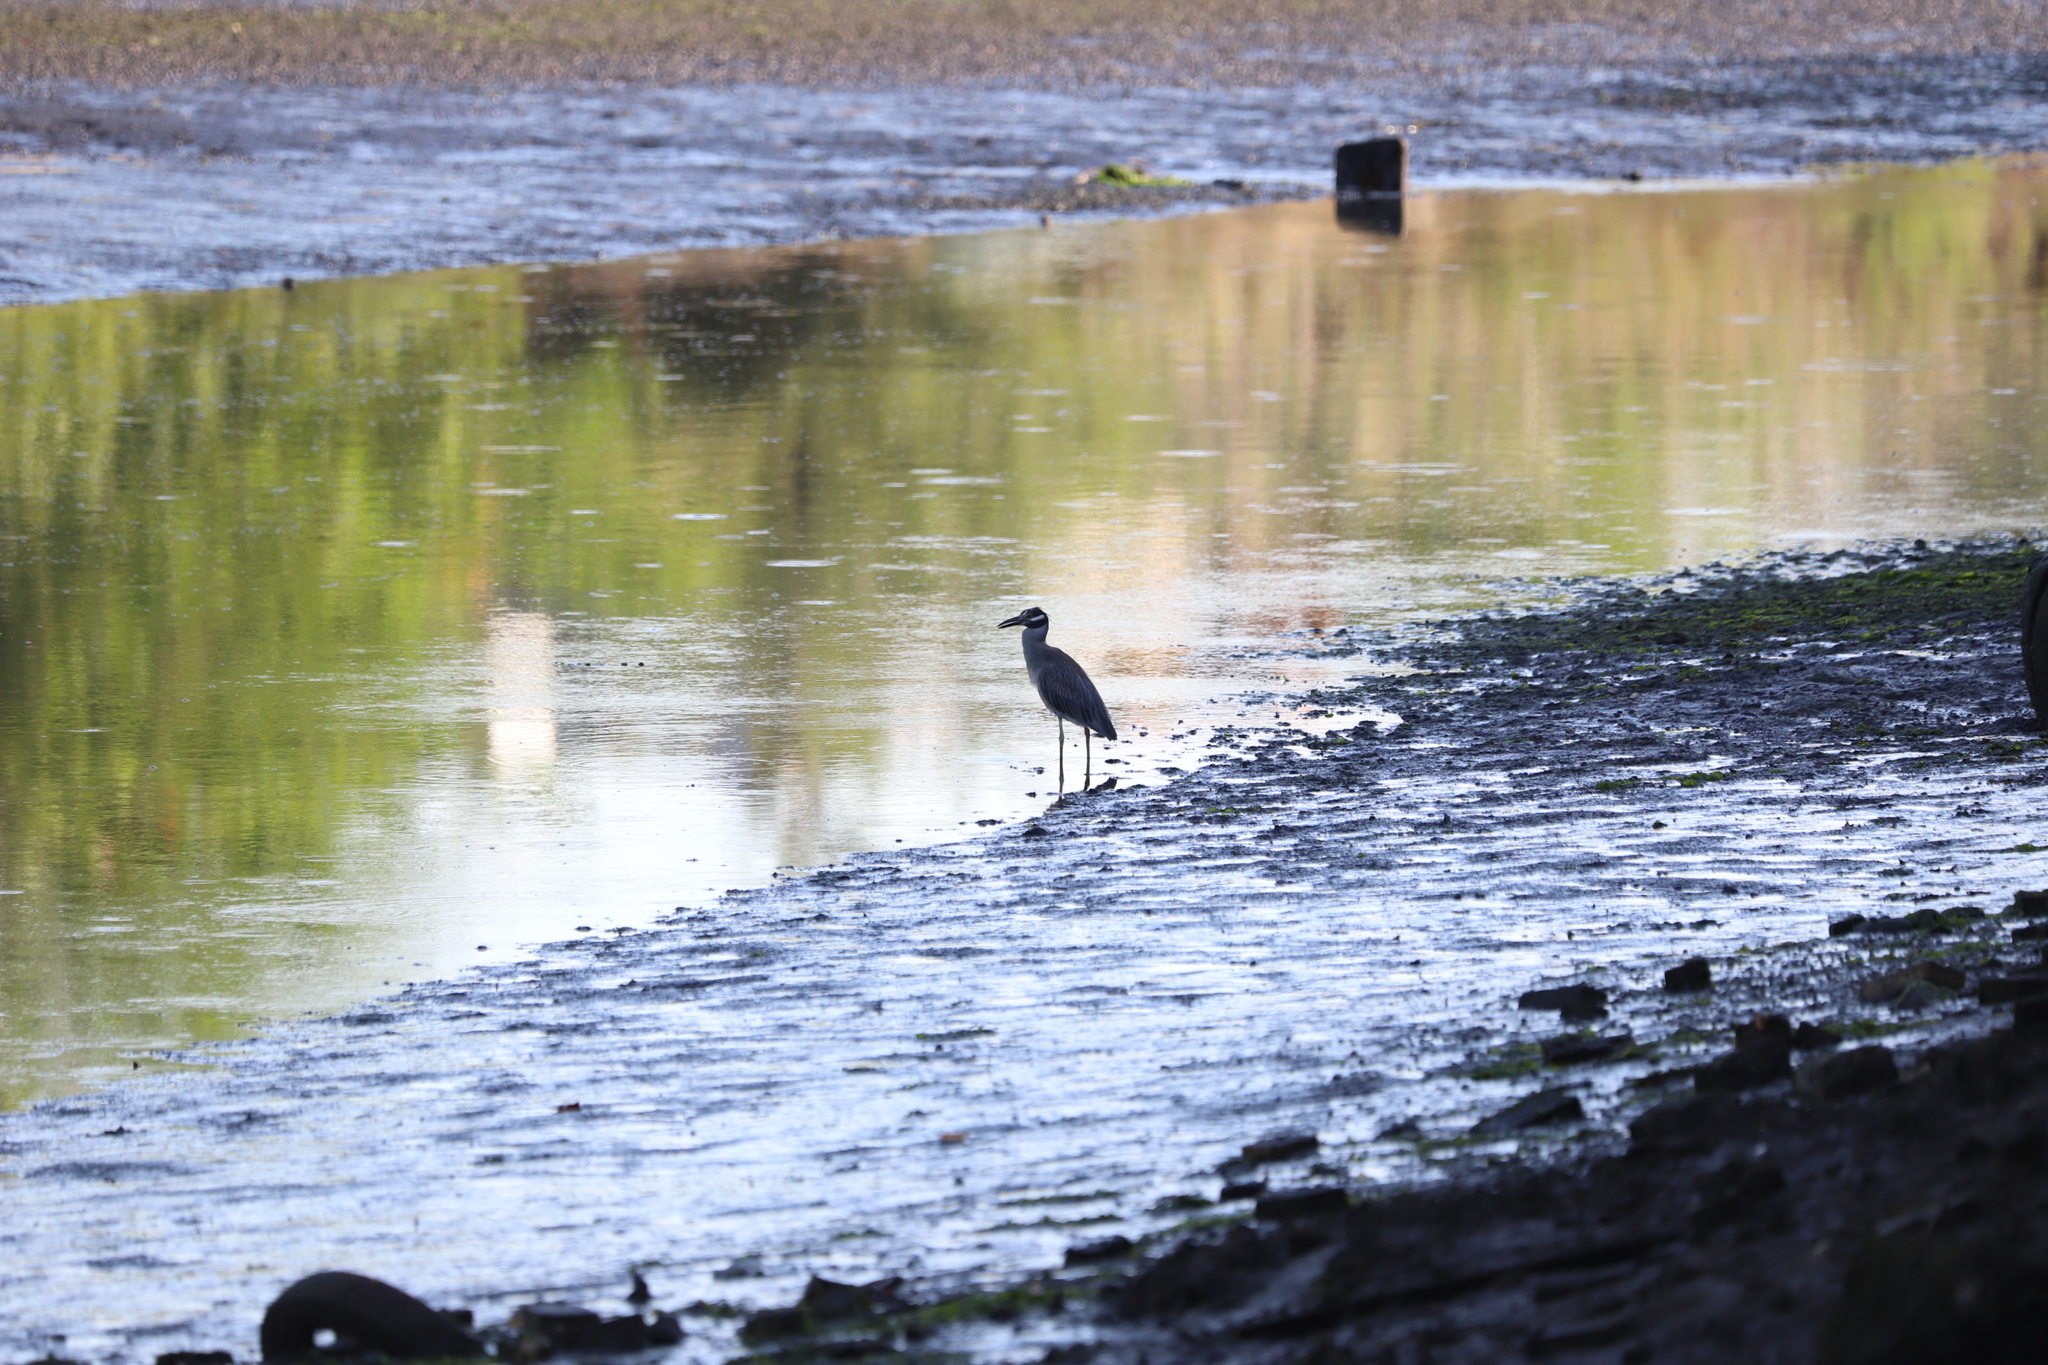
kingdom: Animalia
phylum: Chordata
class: Aves
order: Pelecaniformes
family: Ardeidae
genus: Nyctanassa
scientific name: Nyctanassa violacea
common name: Yellow-crowned night heron
